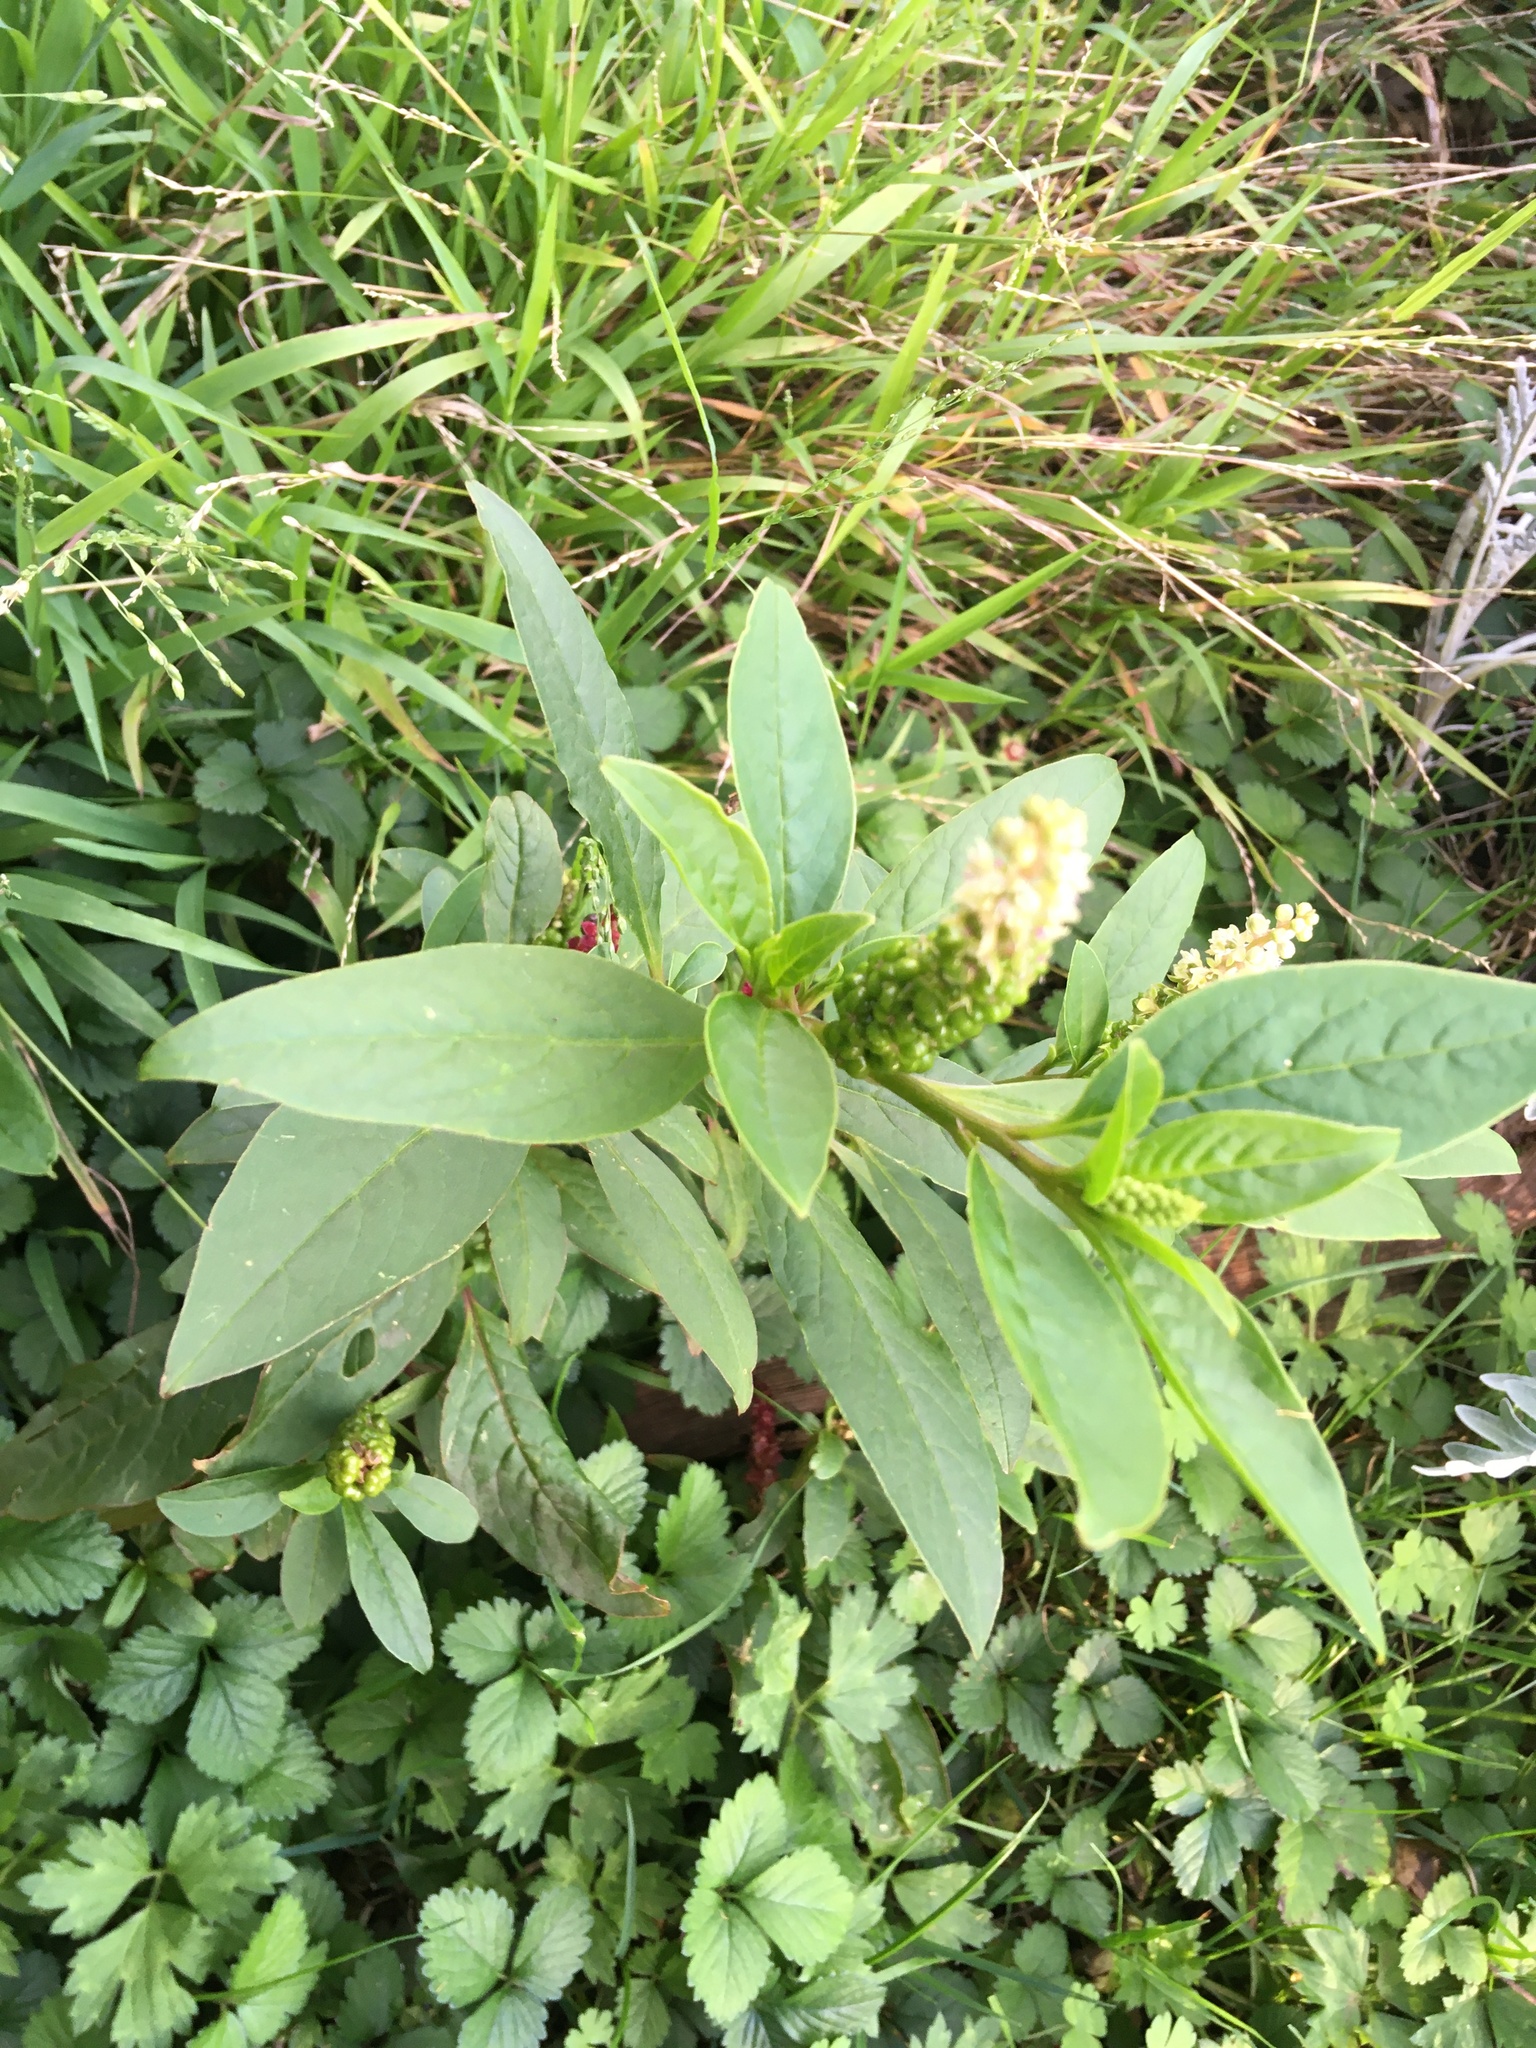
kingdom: Plantae
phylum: Tracheophyta
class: Magnoliopsida
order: Caryophyllales
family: Phytolaccaceae
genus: Phytolacca
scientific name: Phytolacca icosandra
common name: Button pokeweed
